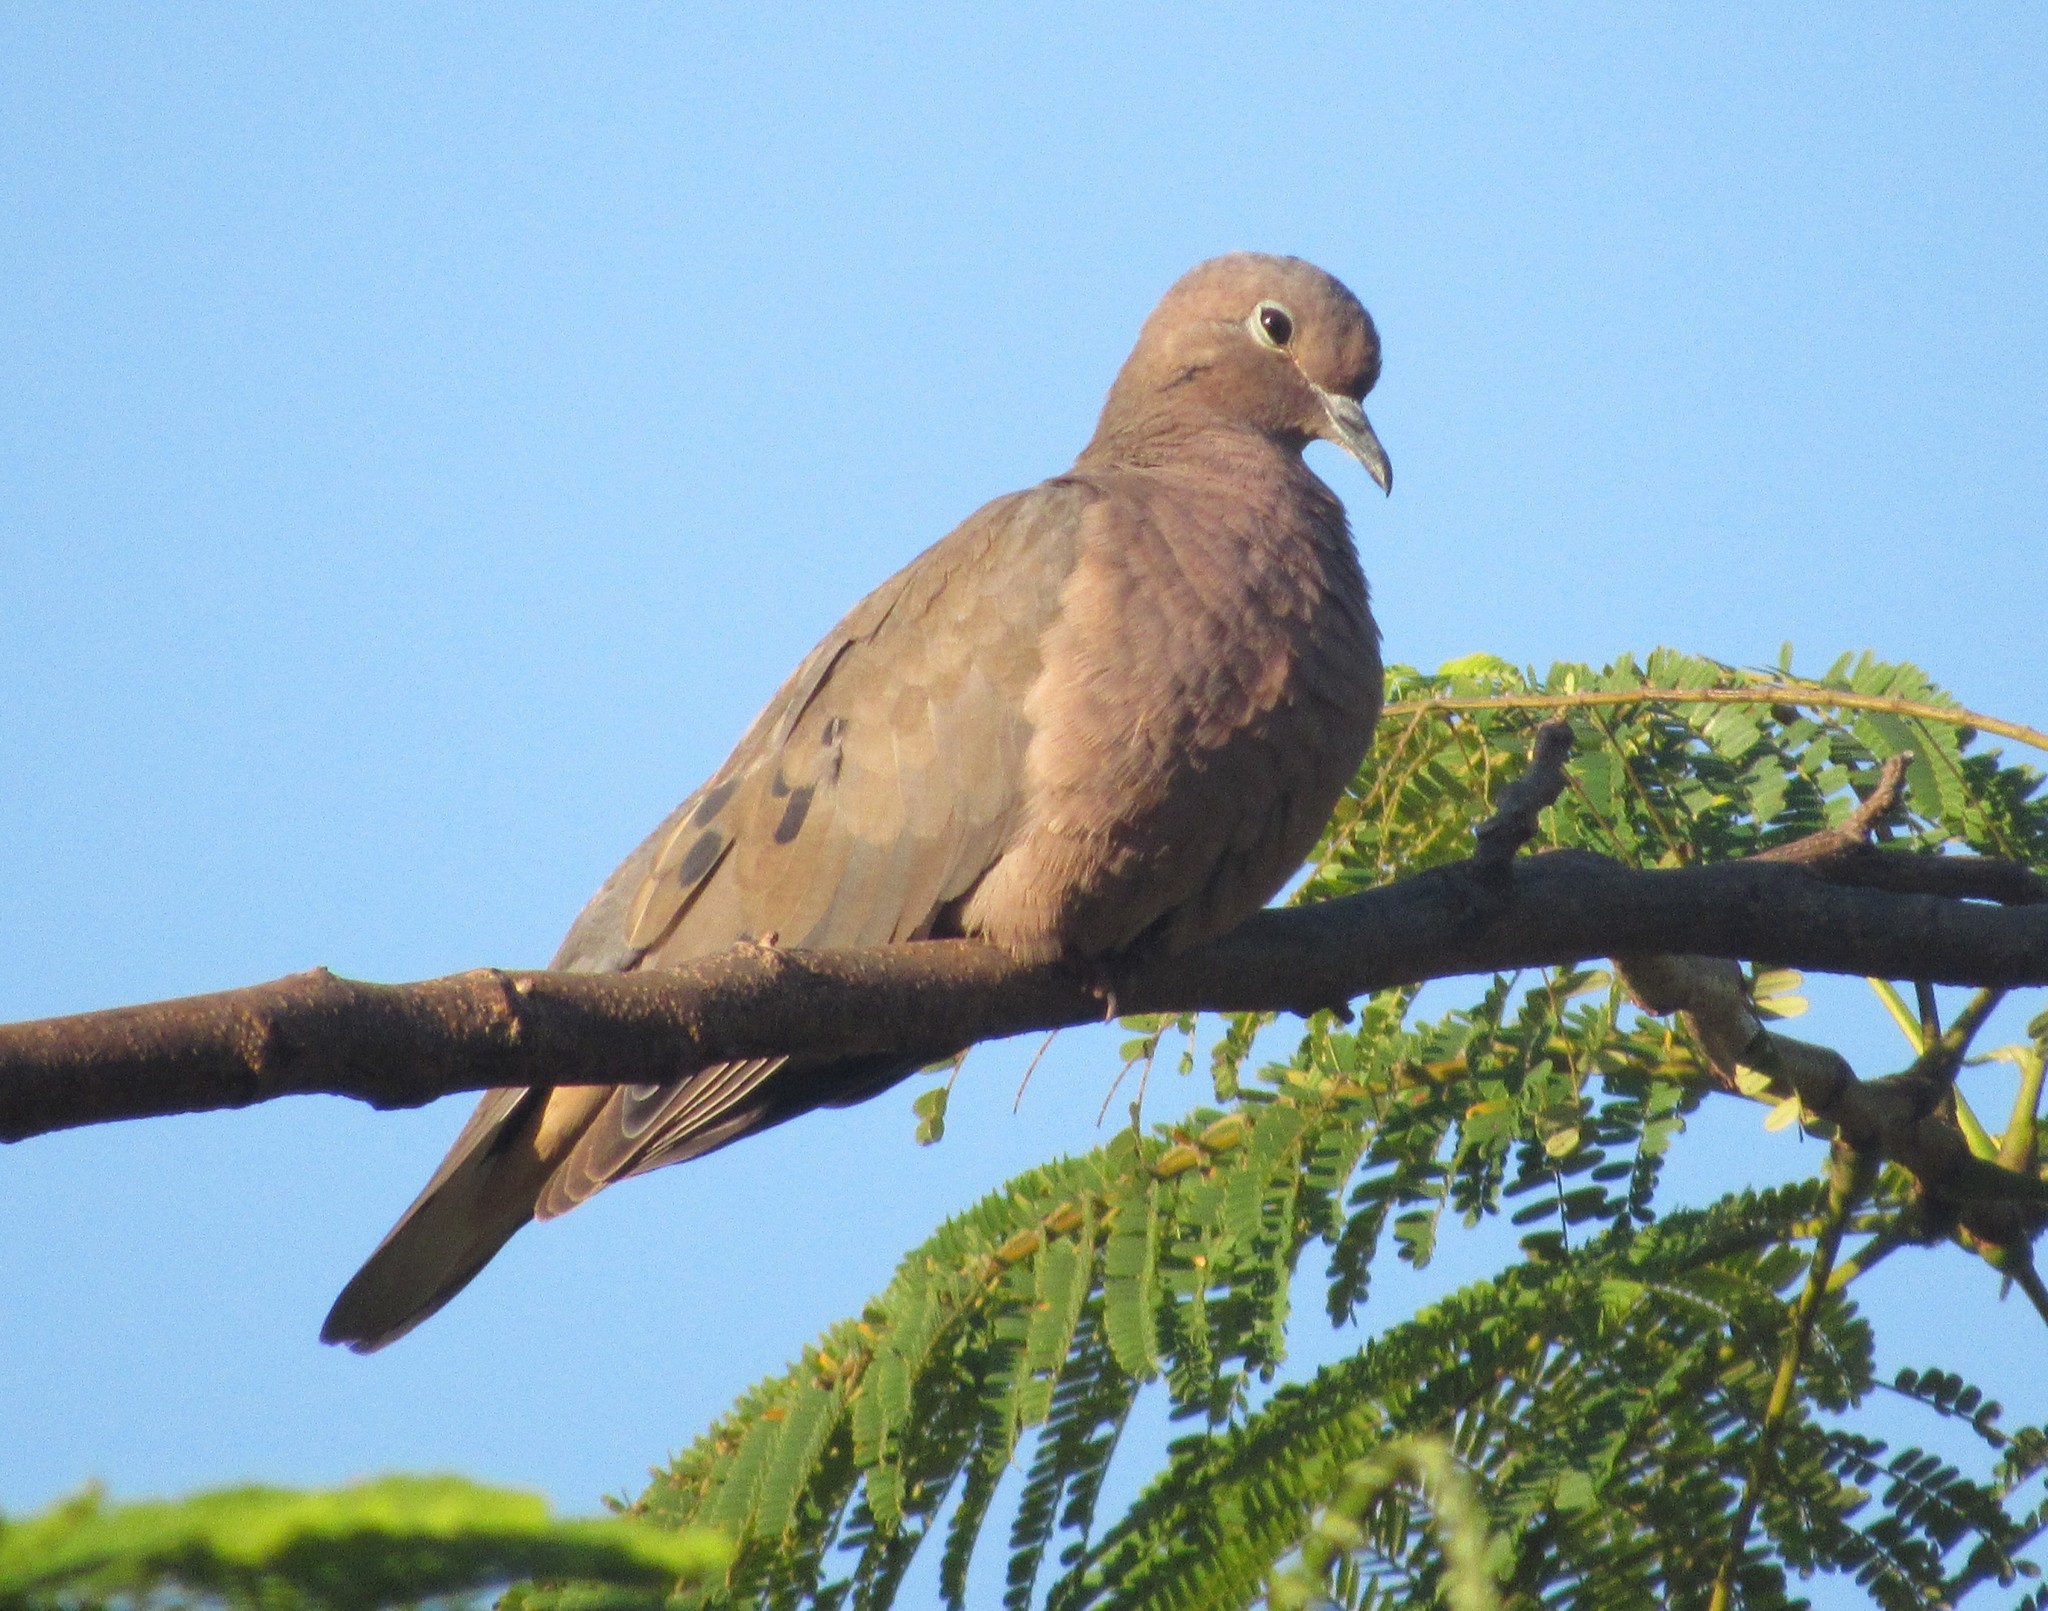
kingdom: Animalia
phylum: Chordata
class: Aves
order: Columbiformes
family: Columbidae
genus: Zenaida
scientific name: Zenaida auriculata
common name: Eared dove
